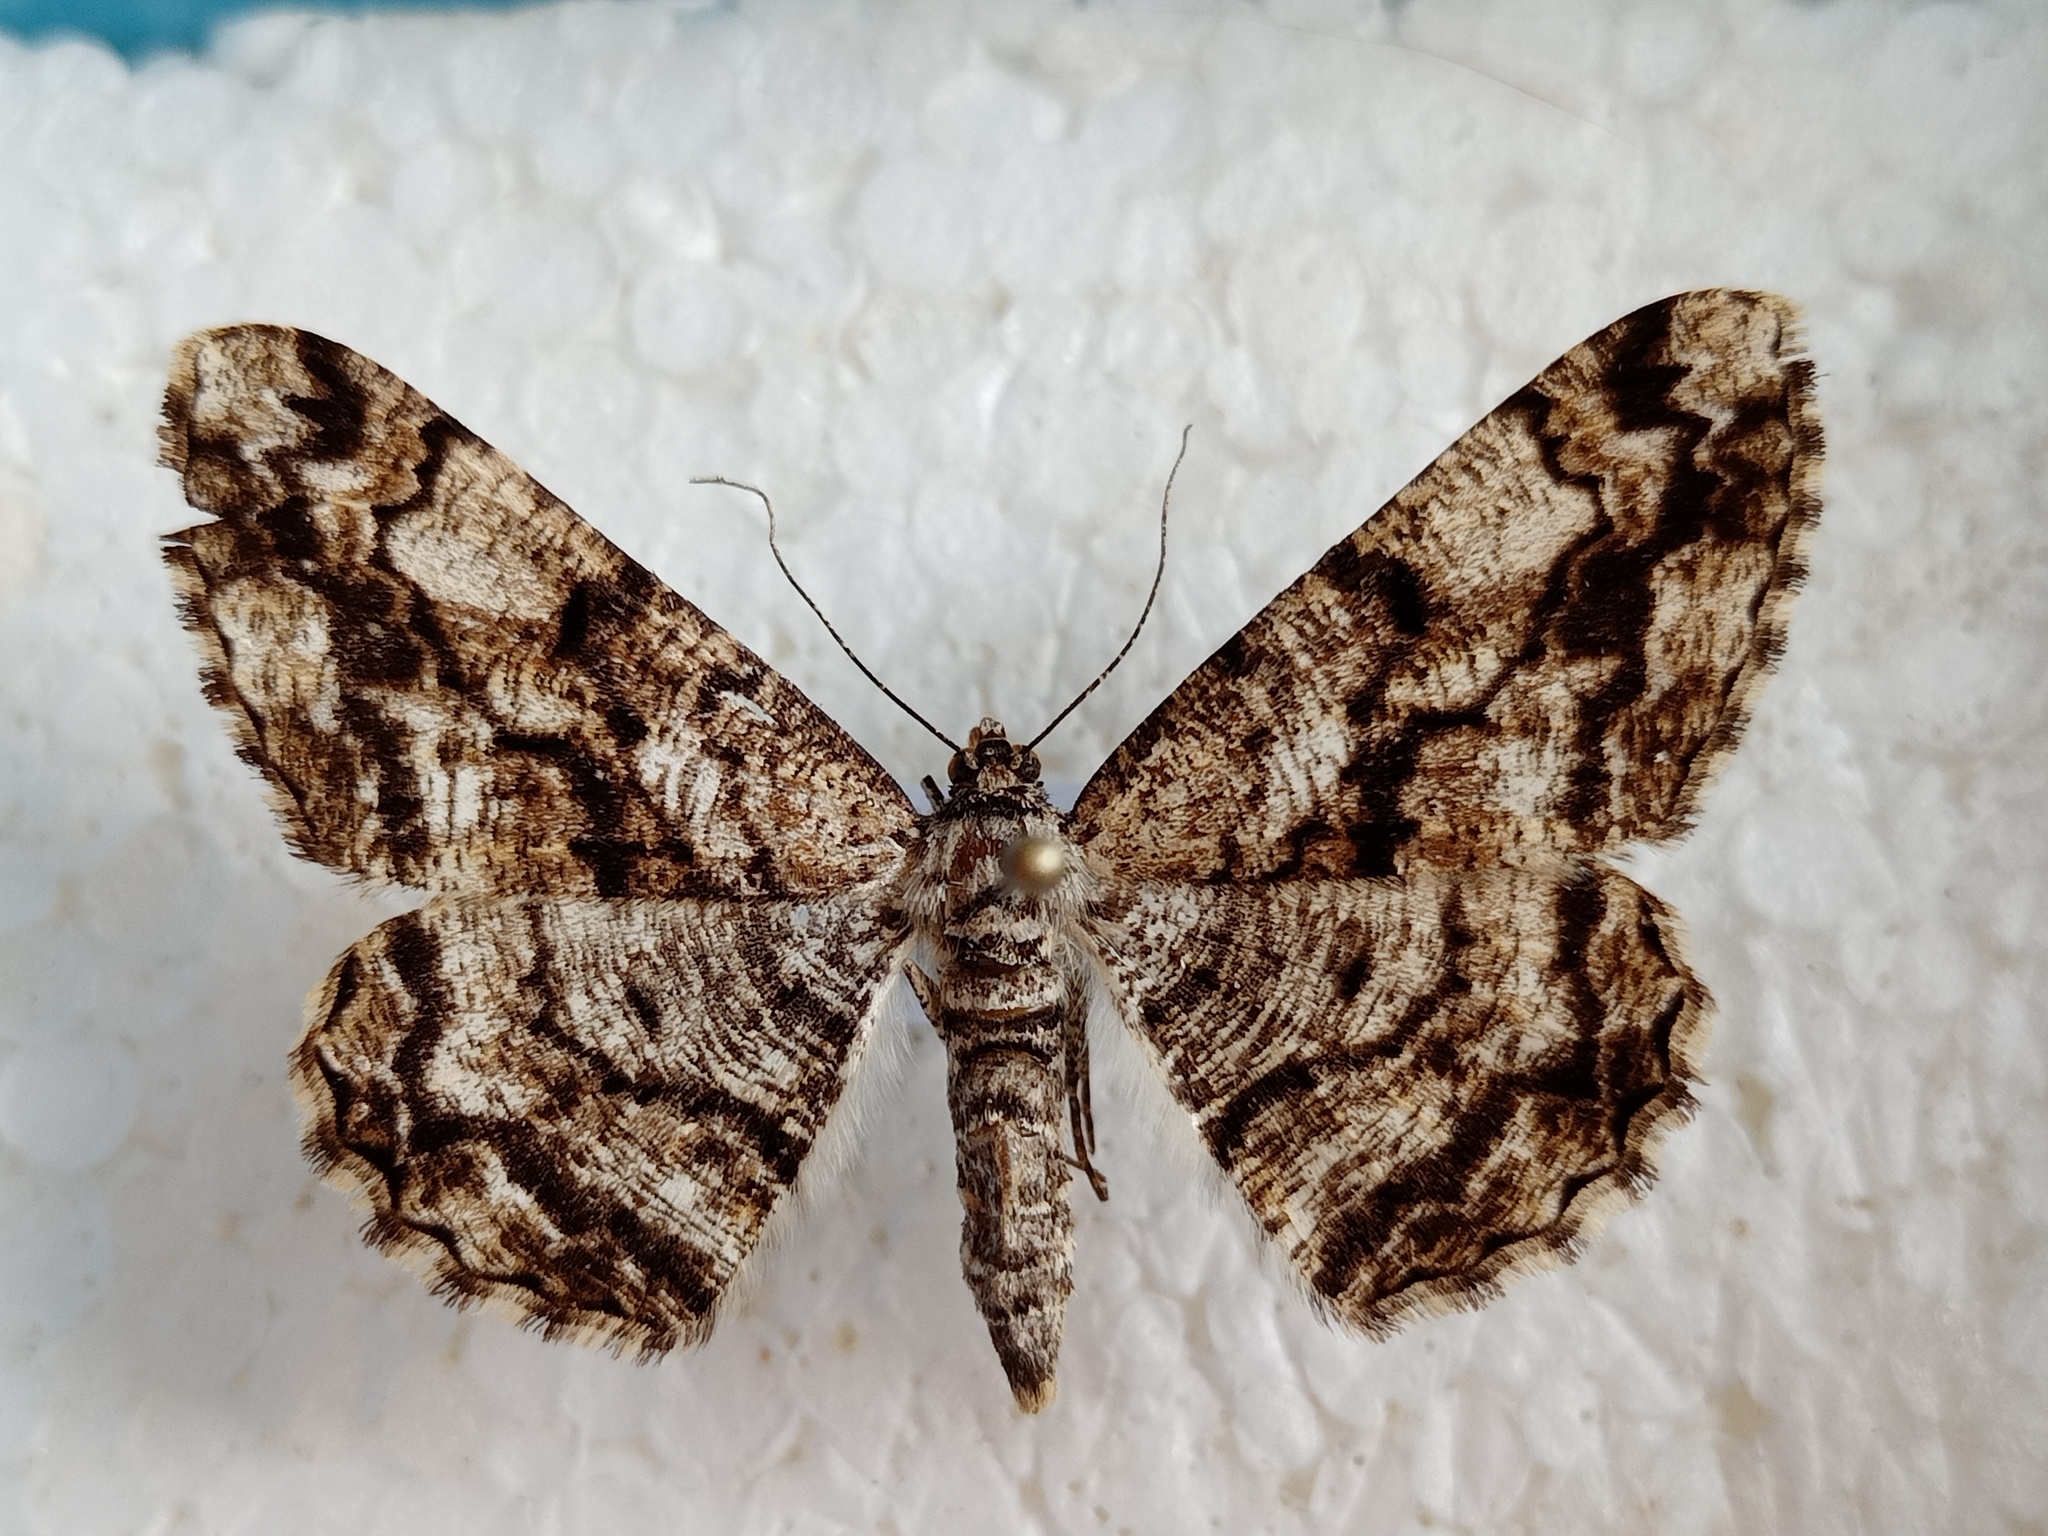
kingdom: Animalia
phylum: Arthropoda
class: Insecta
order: Lepidoptera
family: Geometridae
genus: Peribatodes
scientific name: Peribatodes umbraria
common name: Olive-tree beauty
